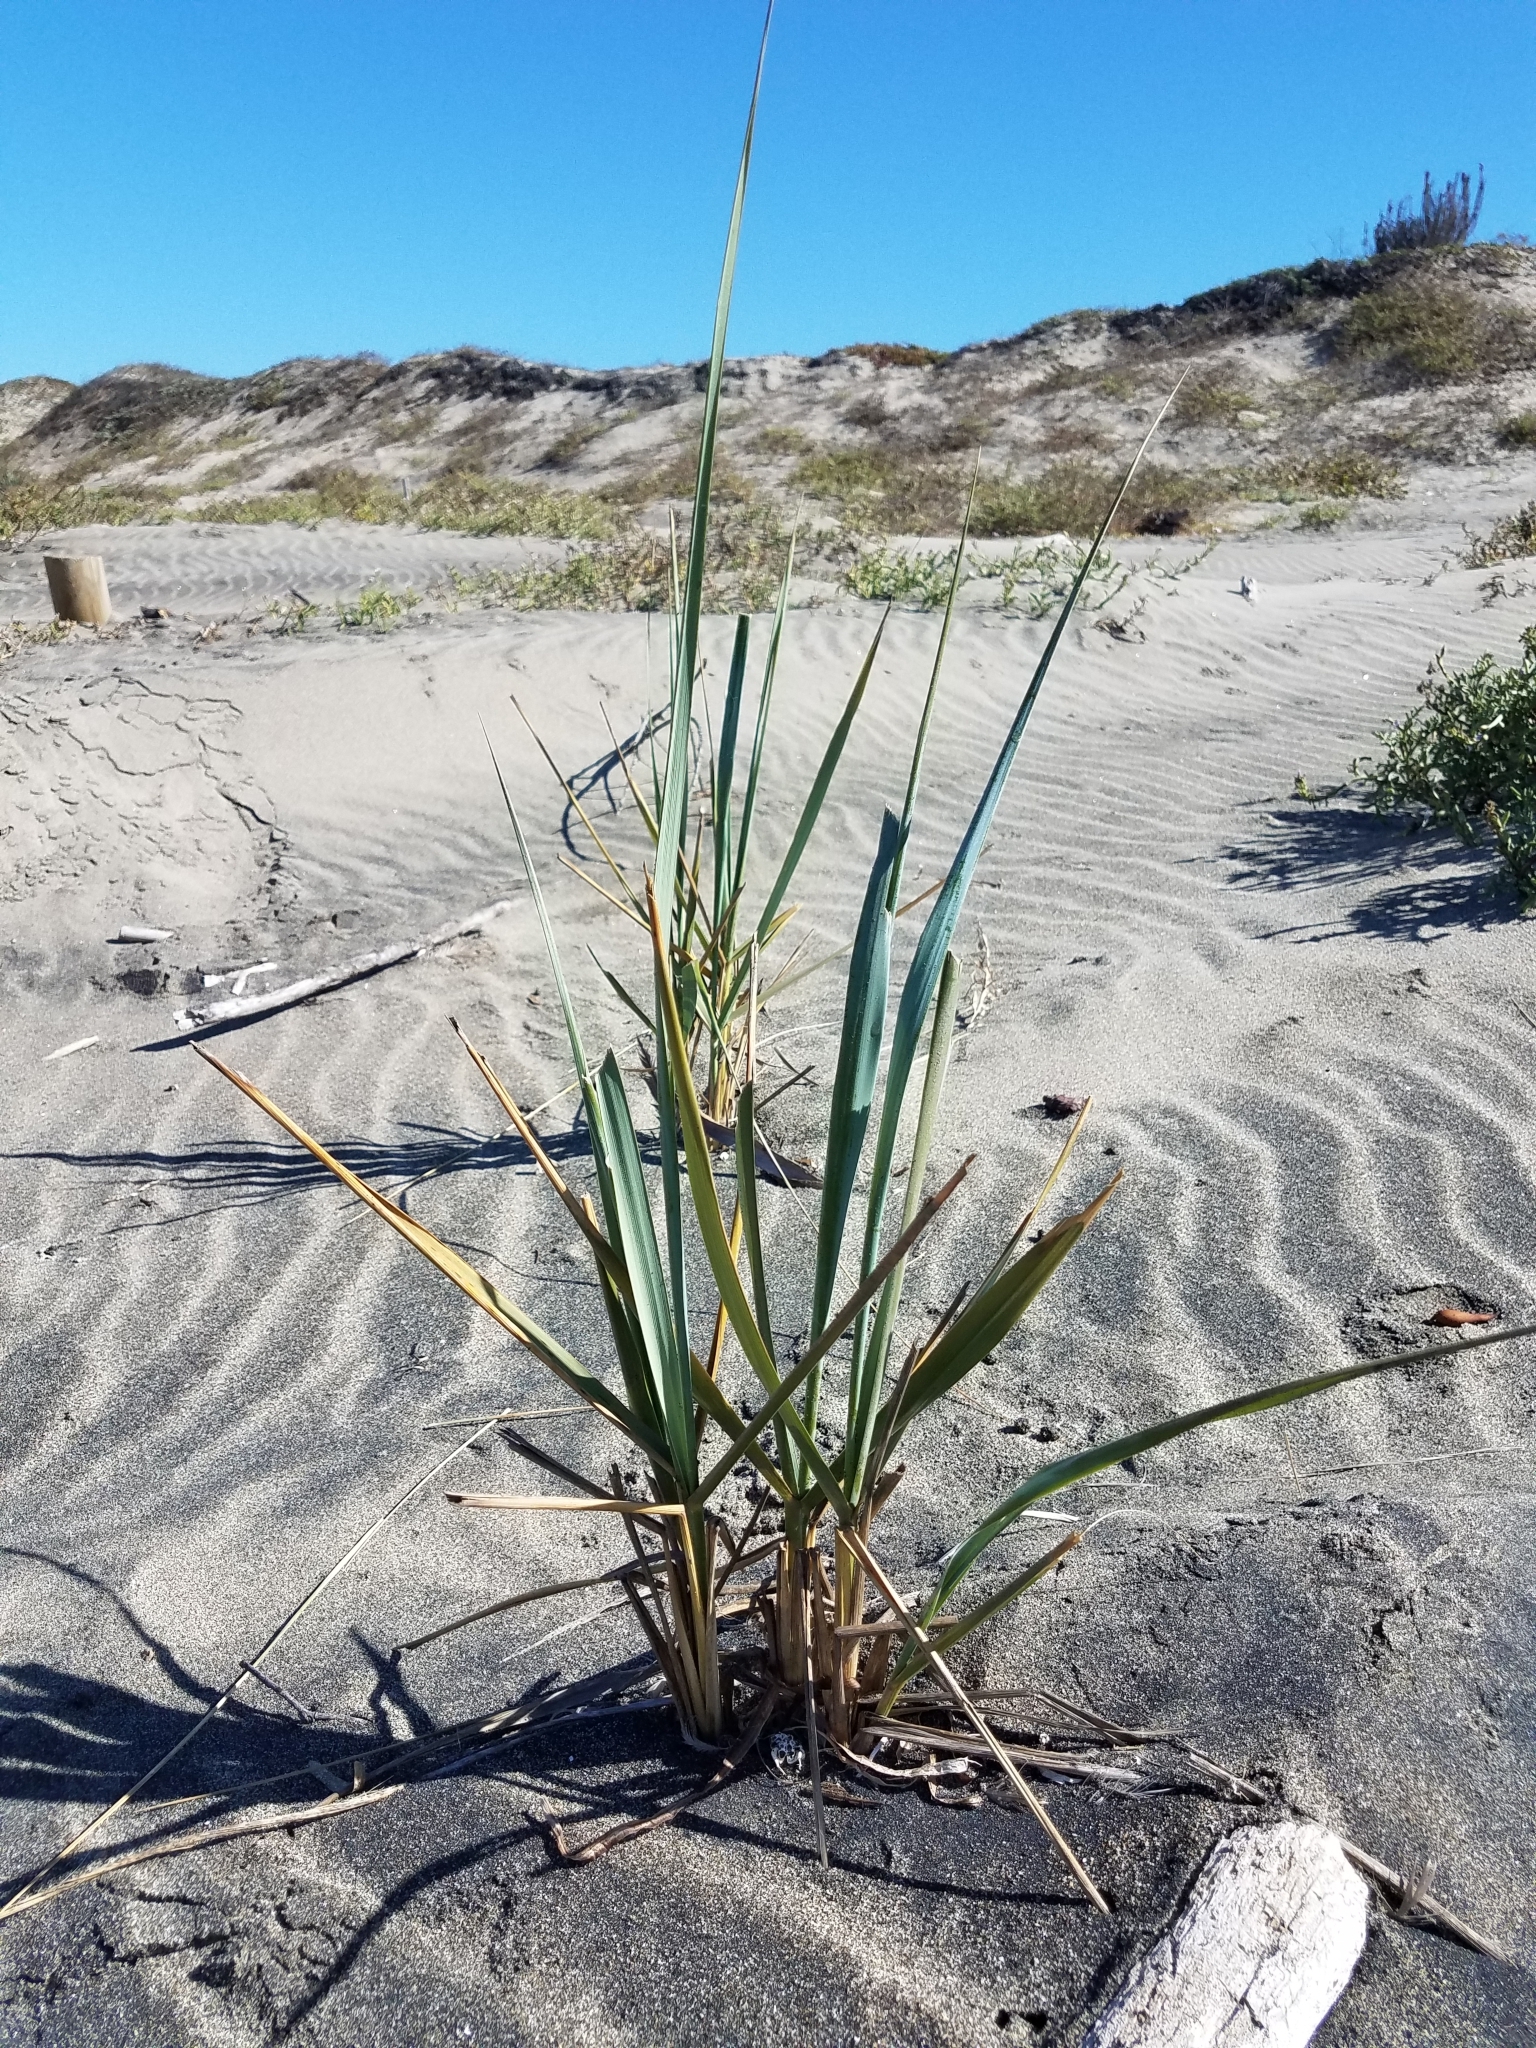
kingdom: Plantae
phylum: Tracheophyta
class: Liliopsida
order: Poales
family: Poaceae
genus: Leymus
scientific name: Leymus mollis
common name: American dune grass
